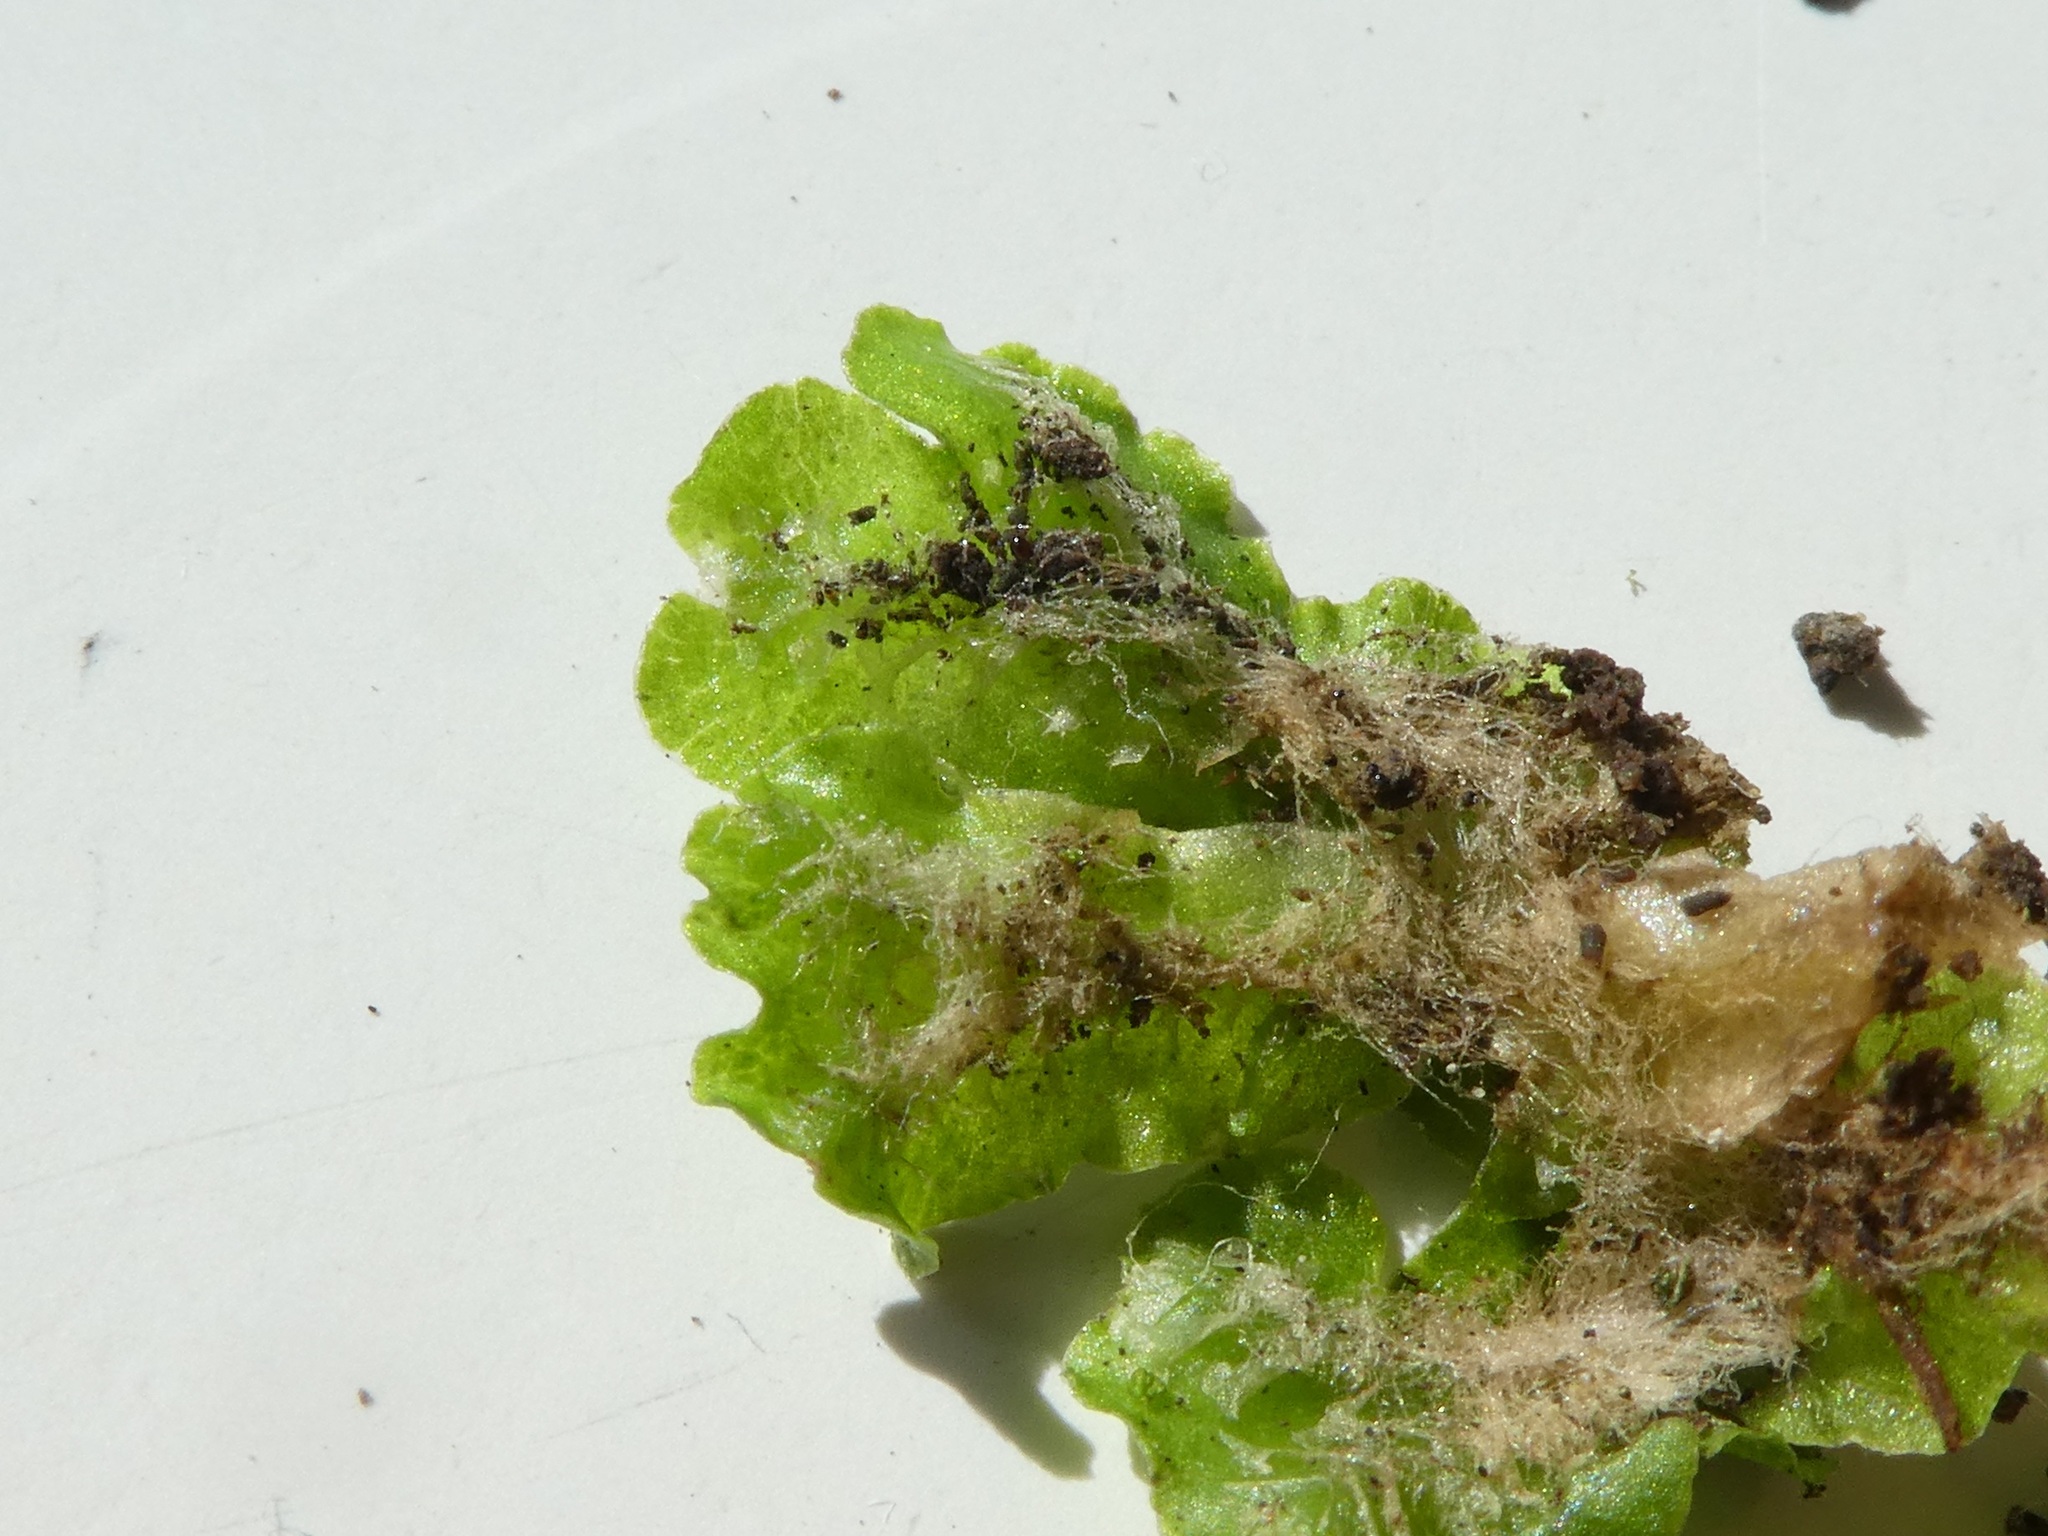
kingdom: Plantae
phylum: Marchantiophyta
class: Marchantiopsida
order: Lunulariales
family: Lunulariaceae
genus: Lunularia
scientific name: Lunularia cruciata
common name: Crescent-cup liverwort
